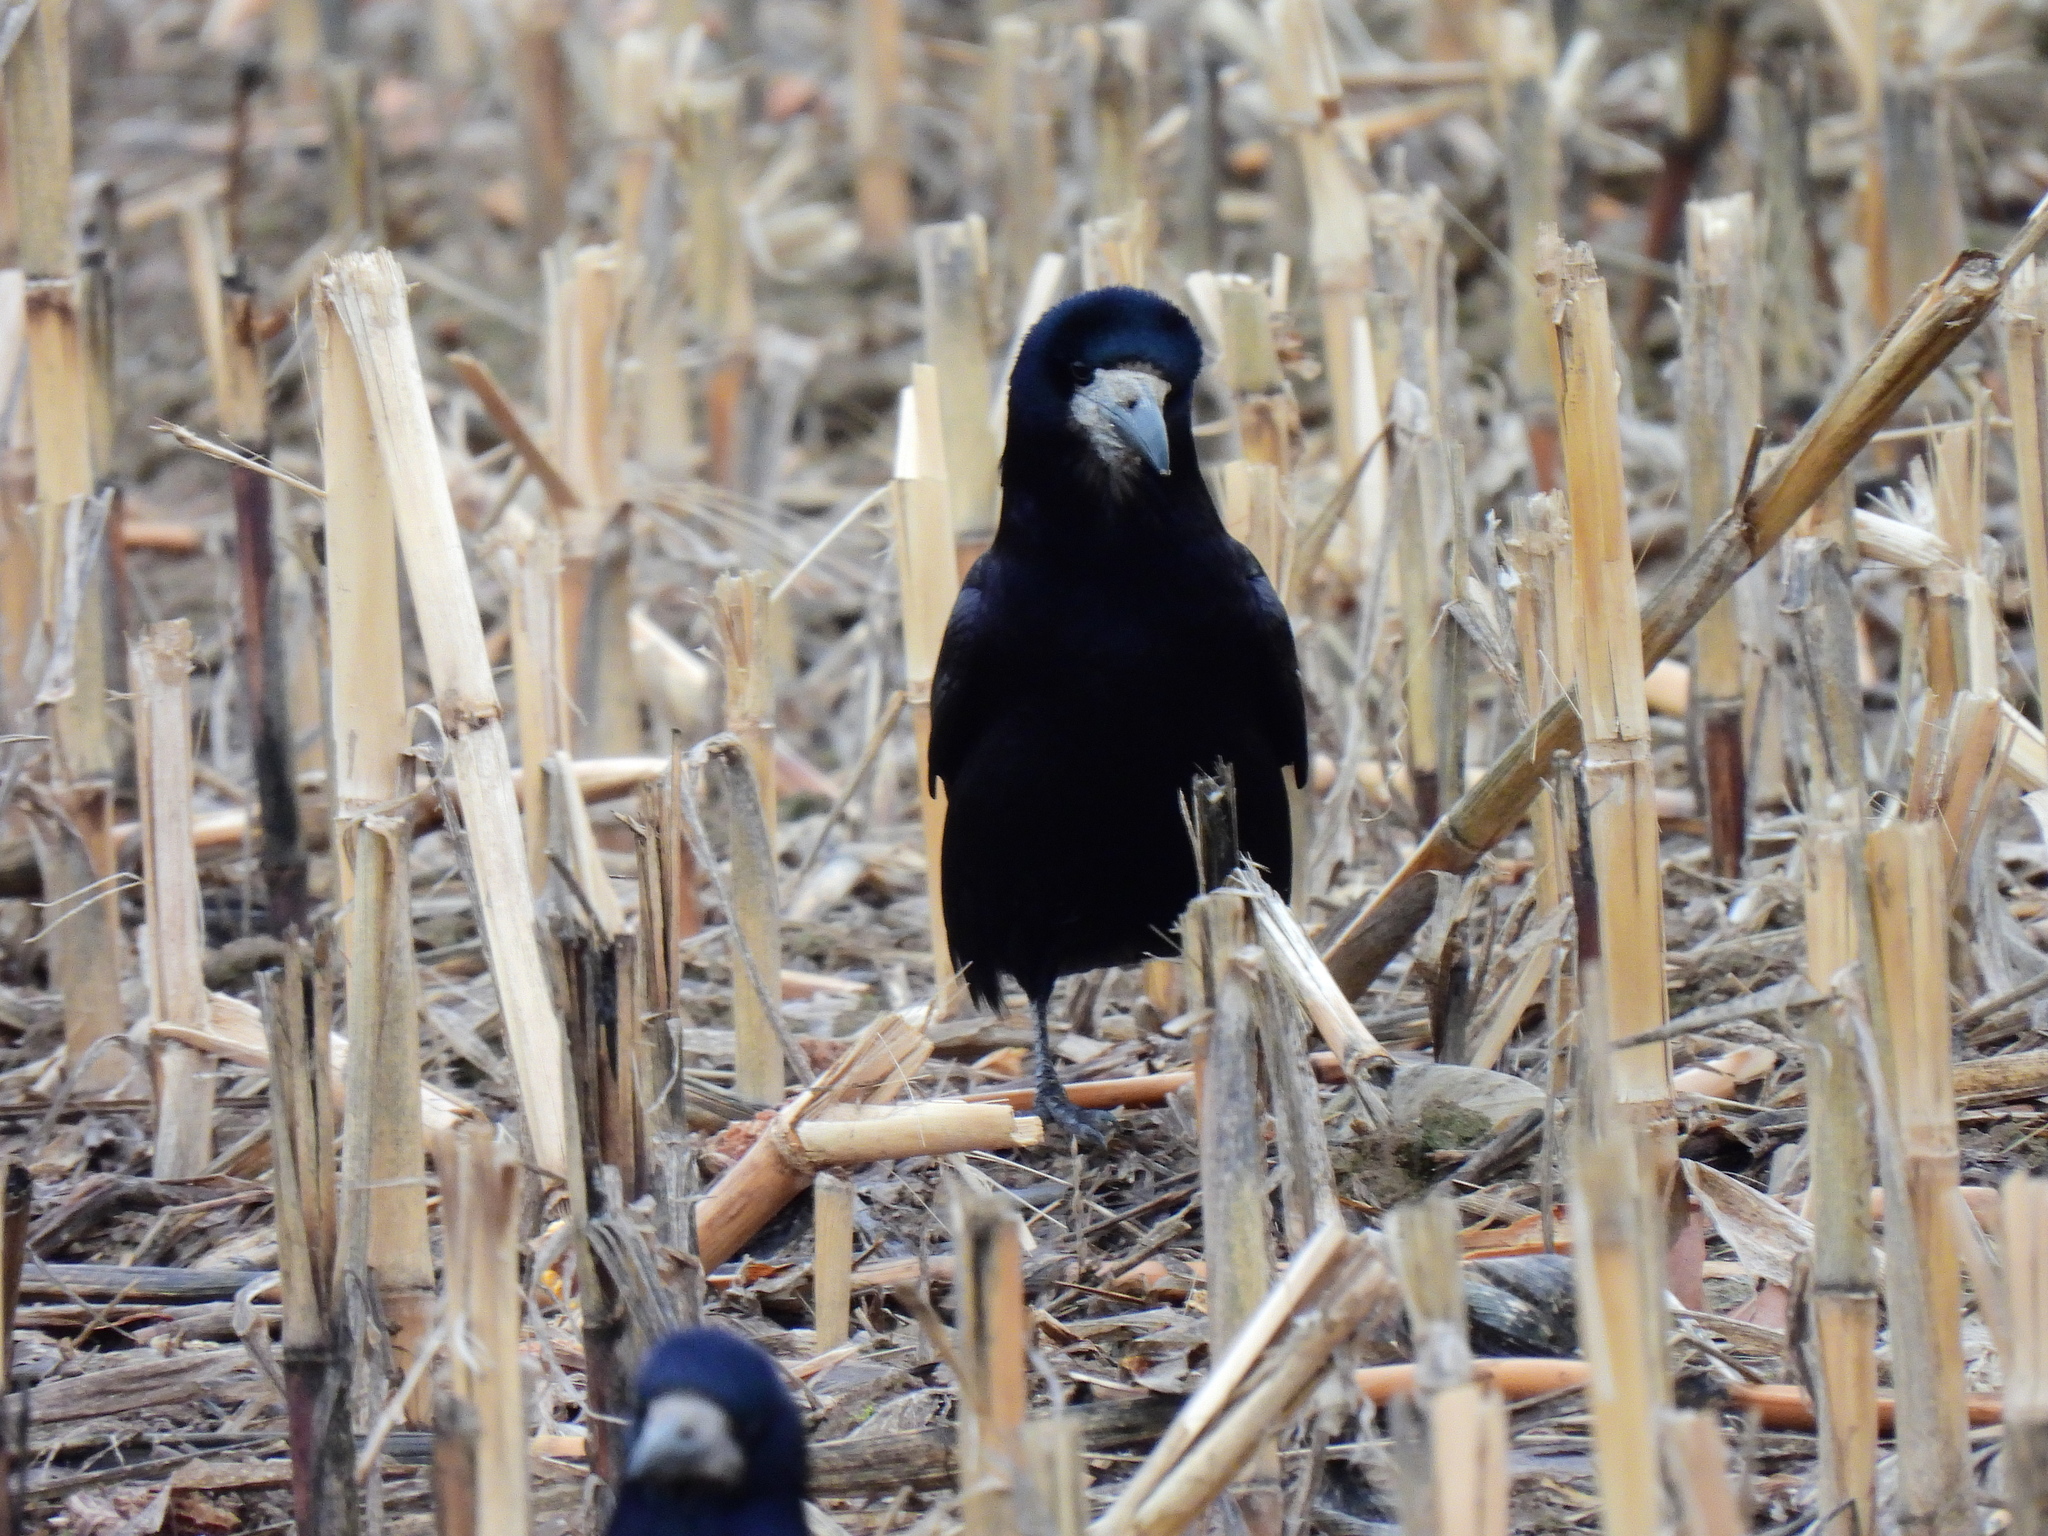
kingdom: Animalia
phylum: Chordata
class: Aves
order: Passeriformes
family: Corvidae
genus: Corvus
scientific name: Corvus frugilegus
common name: Rook
